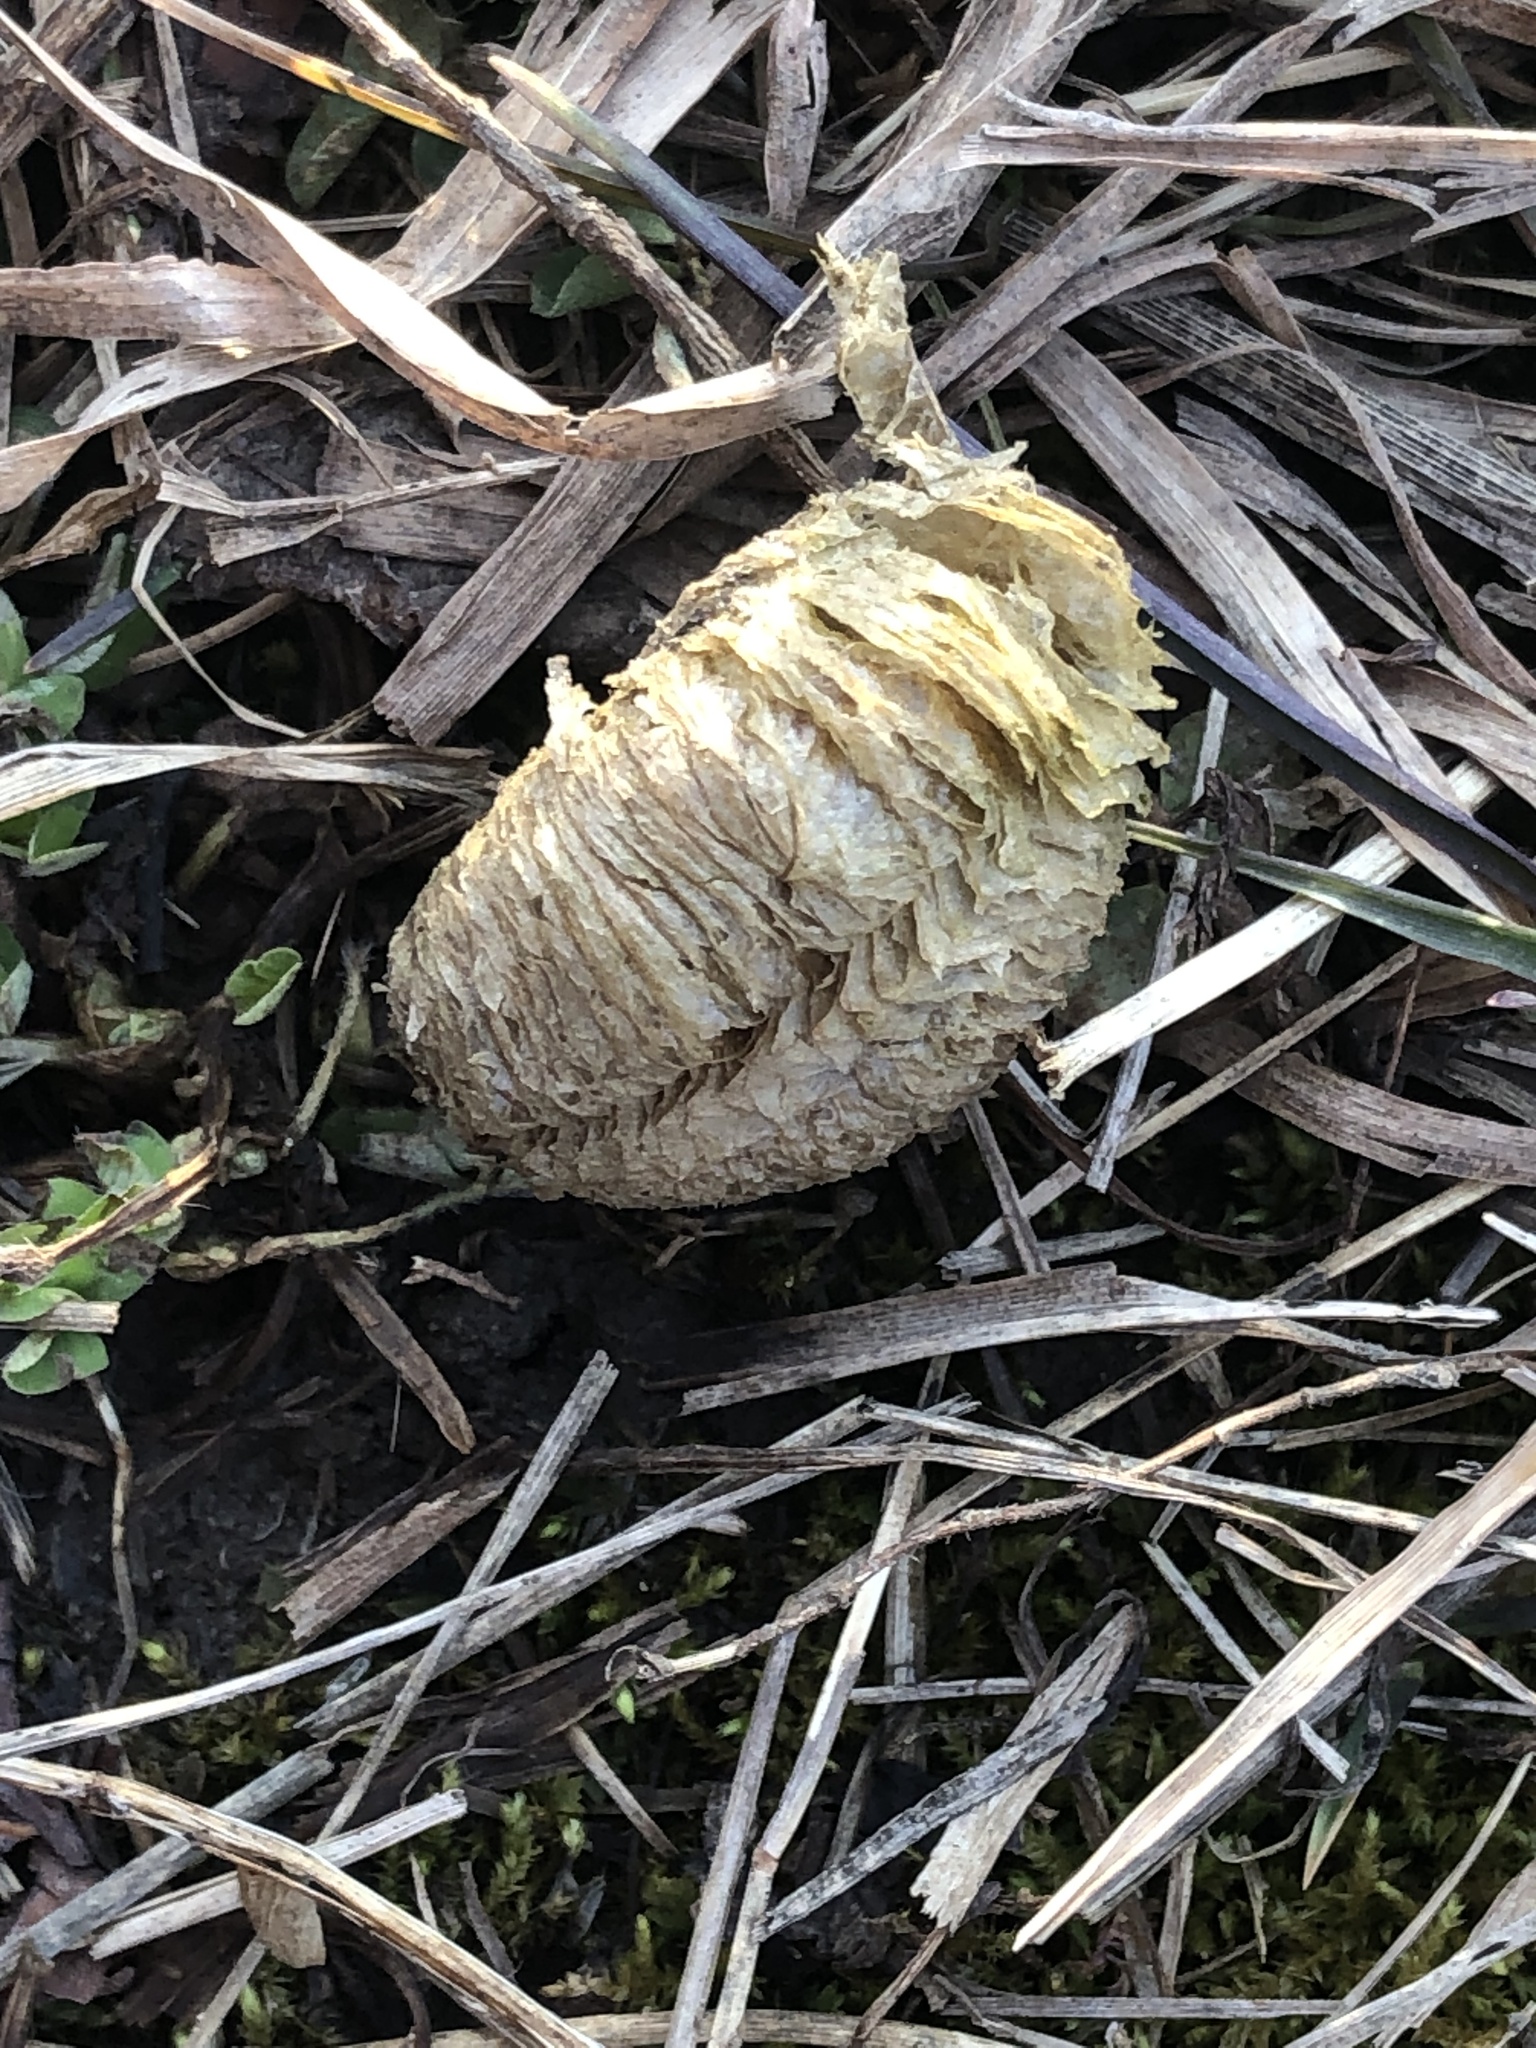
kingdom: Animalia
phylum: Arthropoda
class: Insecta
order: Mantodea
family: Mantidae
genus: Mantis
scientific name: Mantis religiosa
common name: Praying mantis
